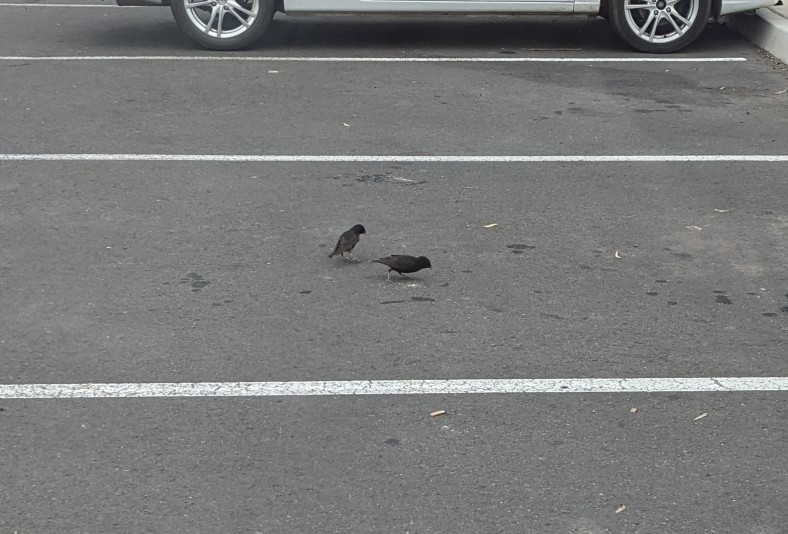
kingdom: Animalia
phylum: Chordata
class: Aves
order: Passeriformes
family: Sturnidae
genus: Sturnus
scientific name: Sturnus vulgaris
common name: Common starling
